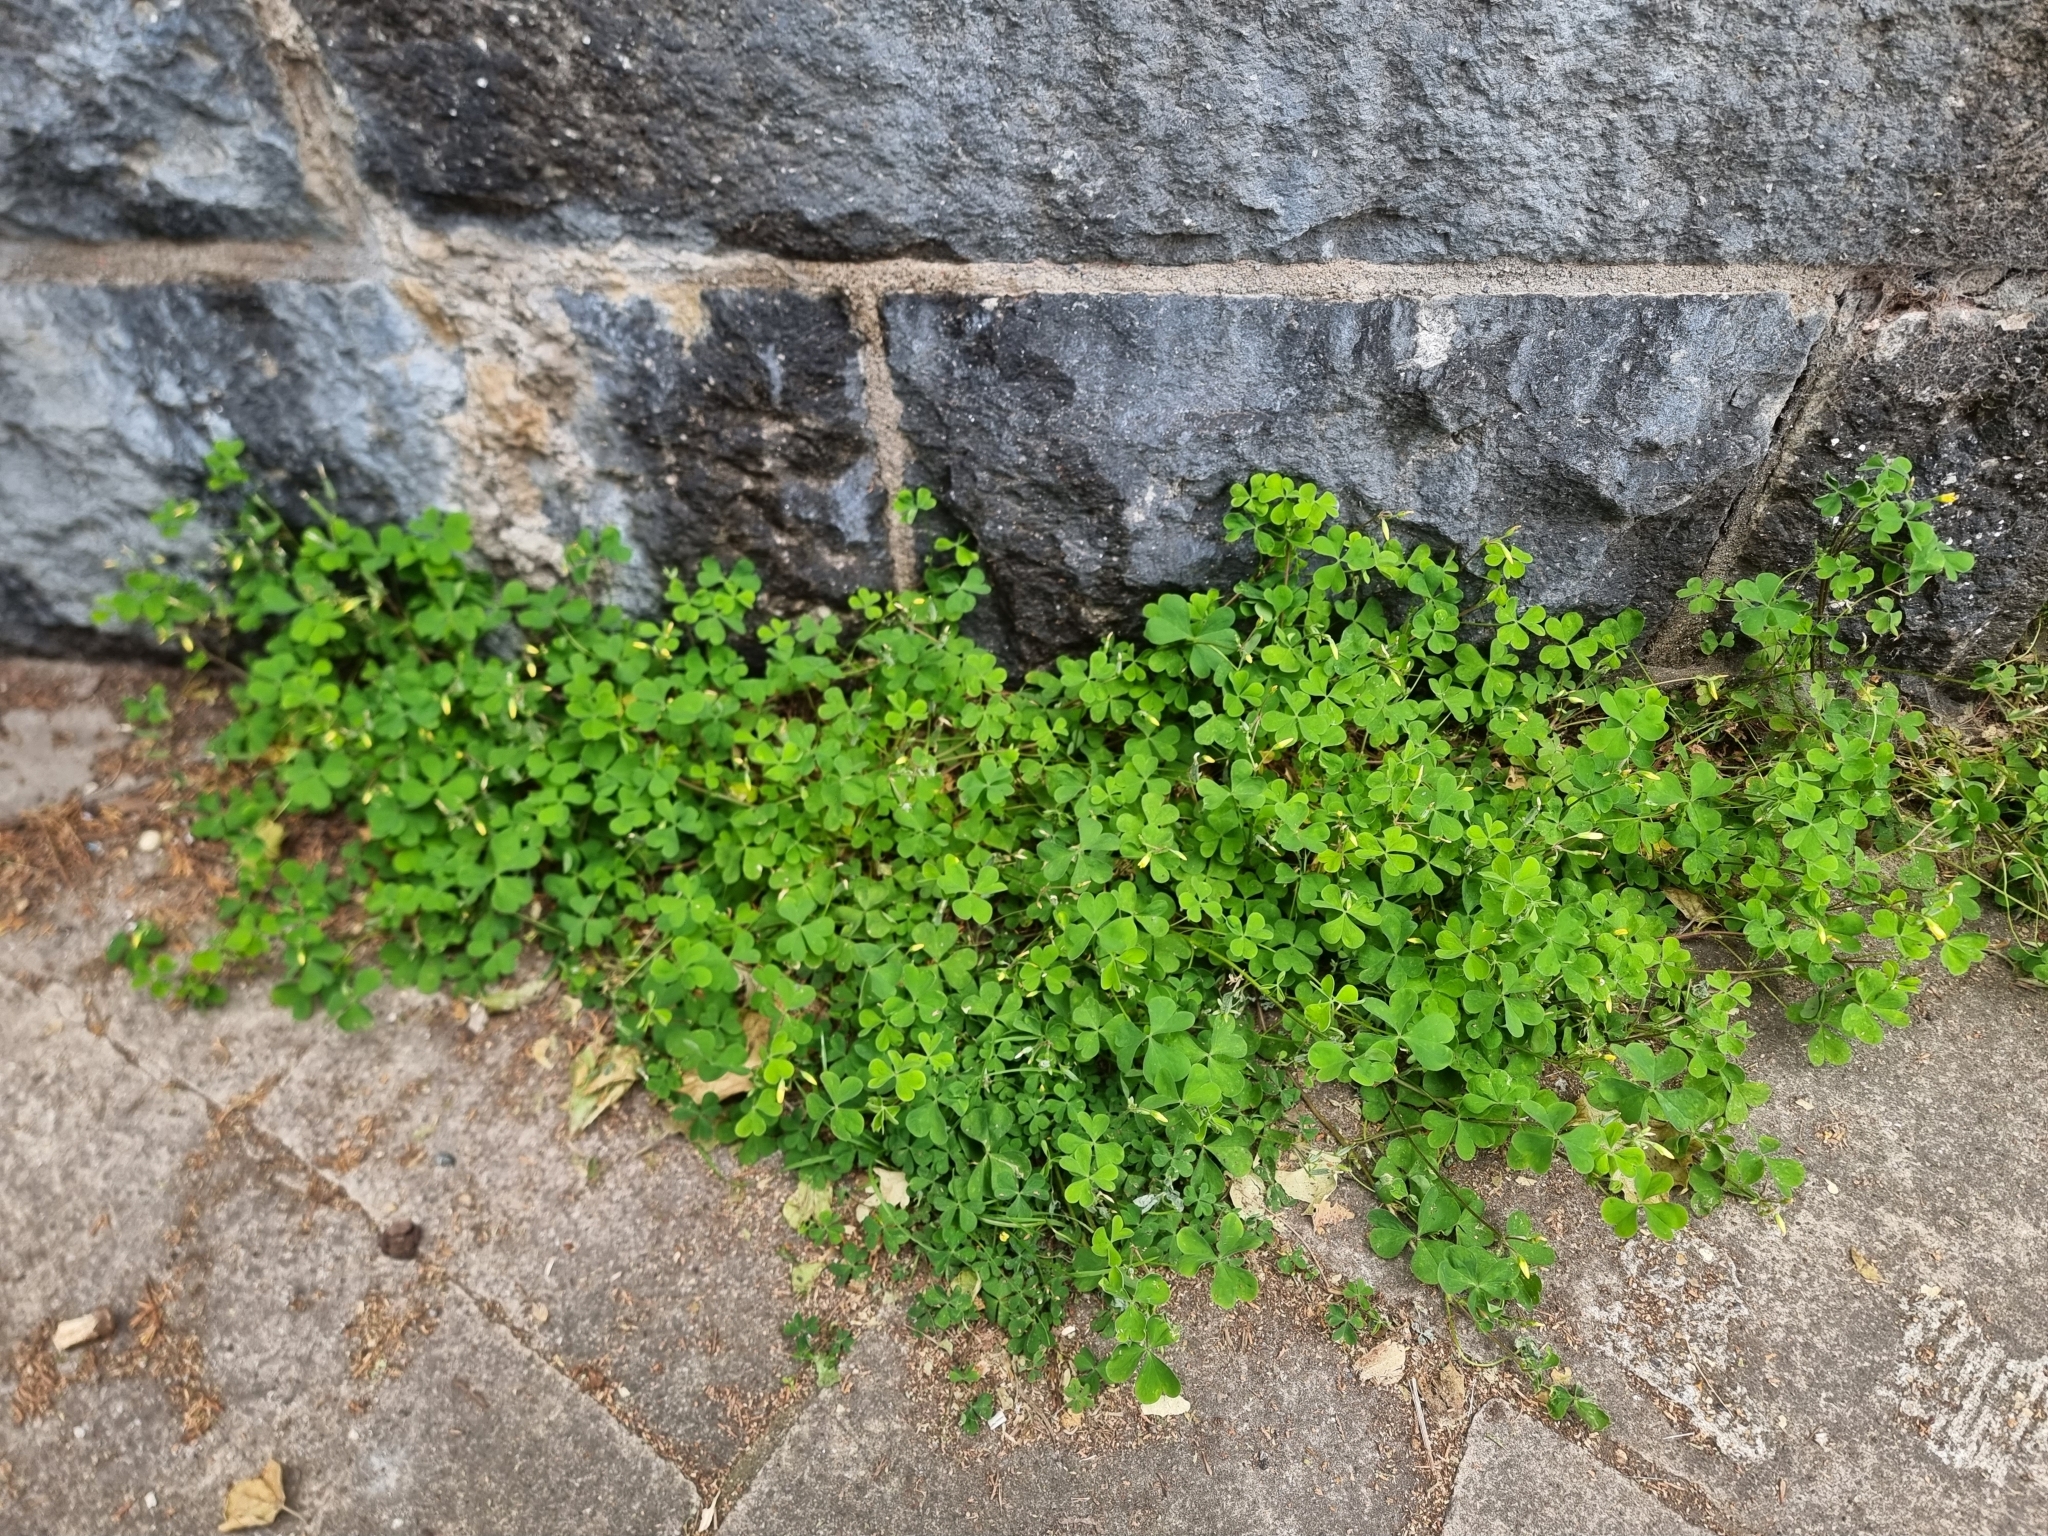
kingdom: Plantae
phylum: Tracheophyta
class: Magnoliopsida
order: Oxalidales
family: Oxalidaceae
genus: Oxalis
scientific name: Oxalis corniculata
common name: Procumbent yellow-sorrel
